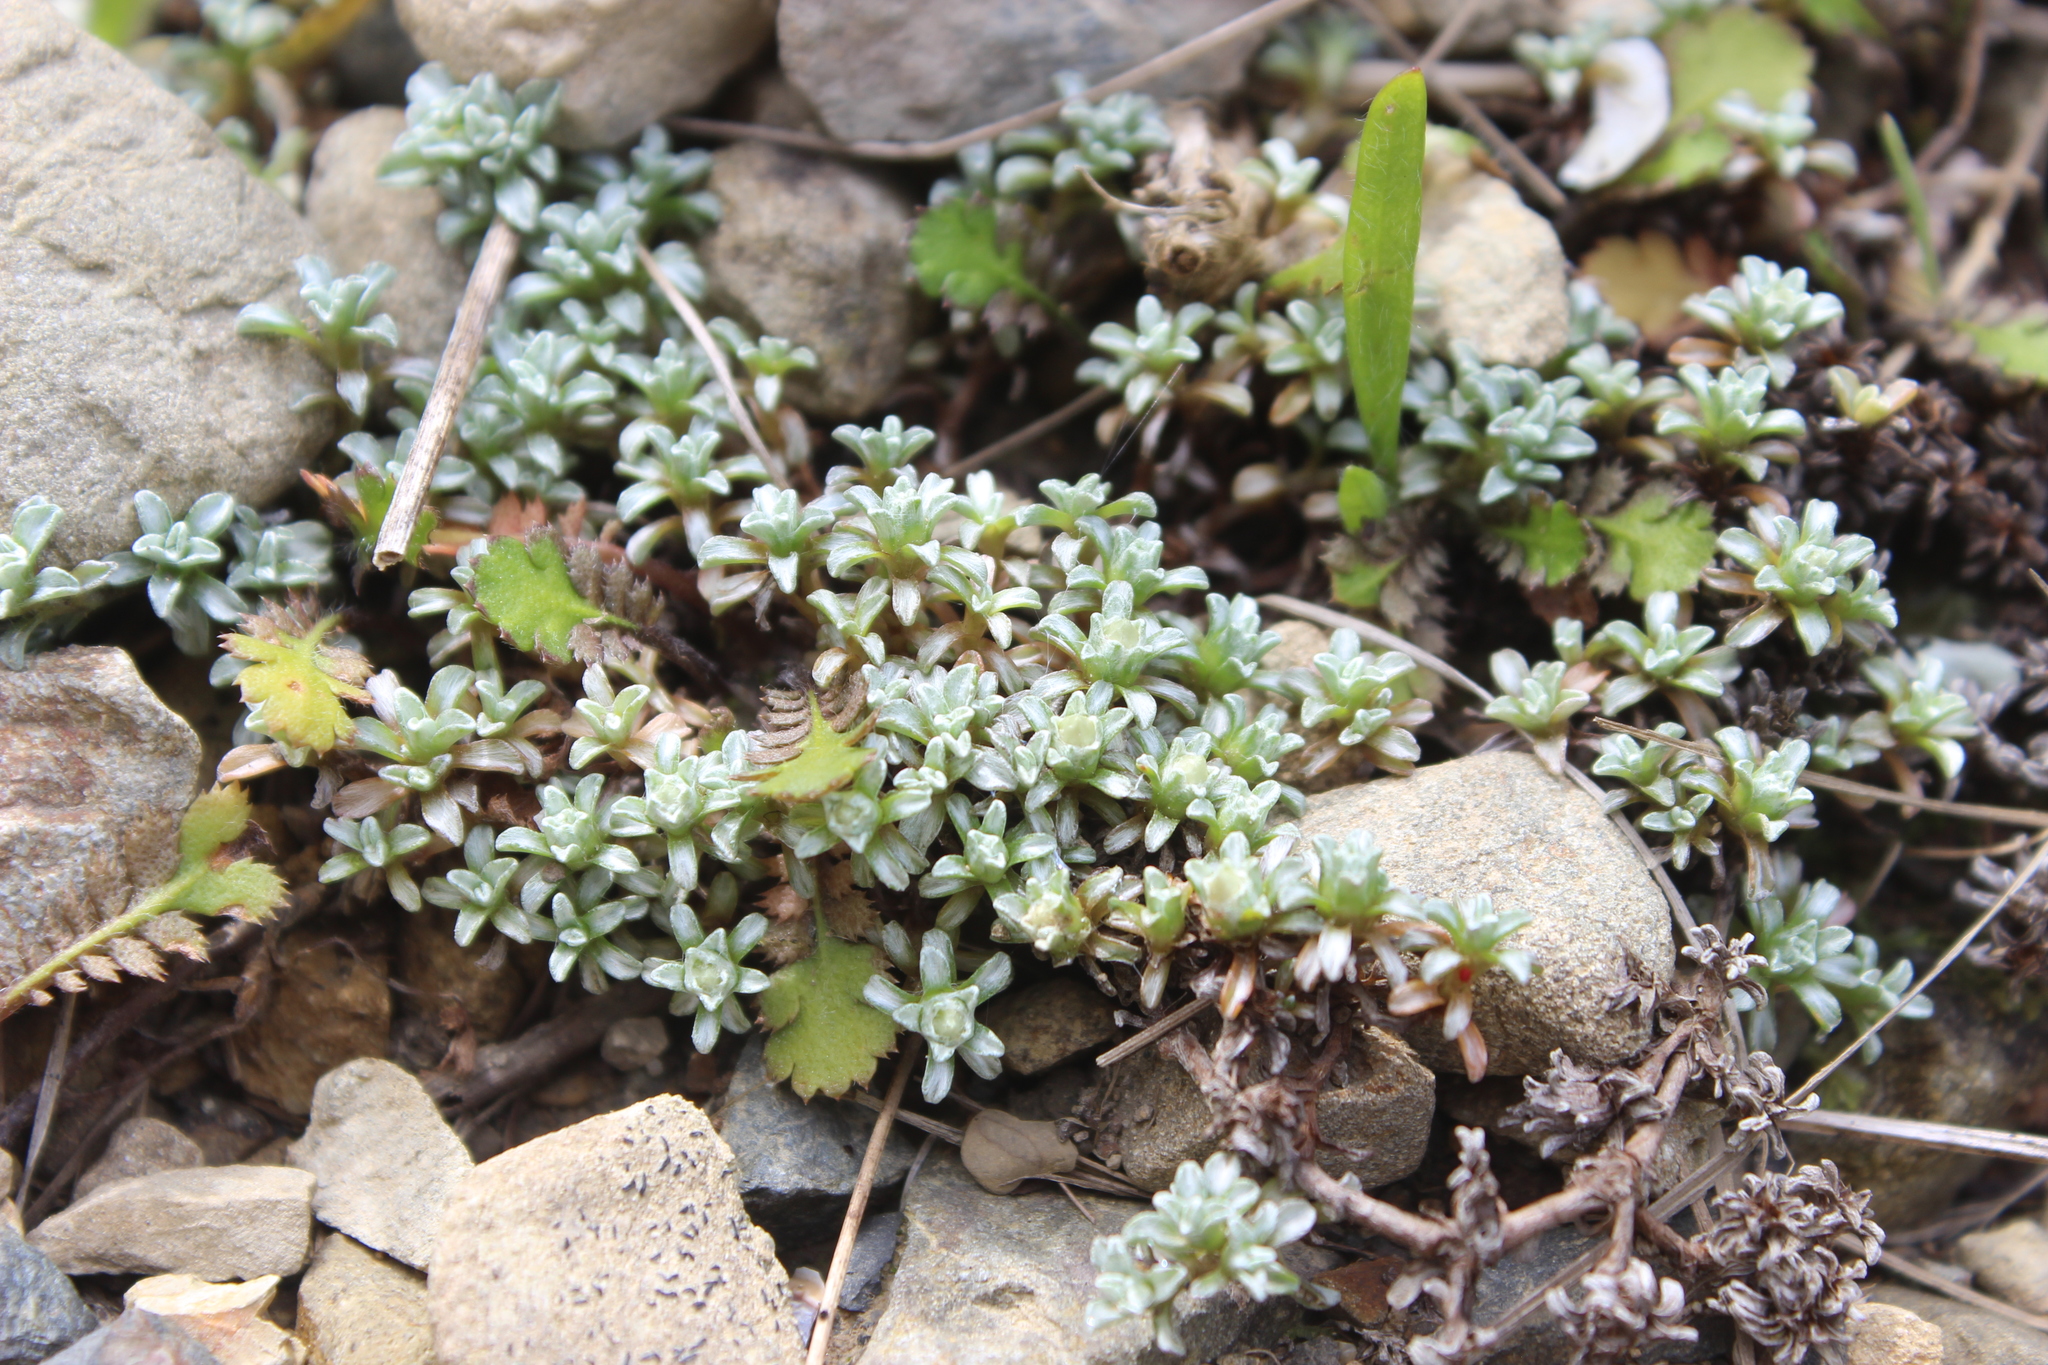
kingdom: Plantae
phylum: Tracheophyta
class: Magnoliopsida
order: Asterales
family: Asteraceae
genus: Raoulia
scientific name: Raoulia hookeri
